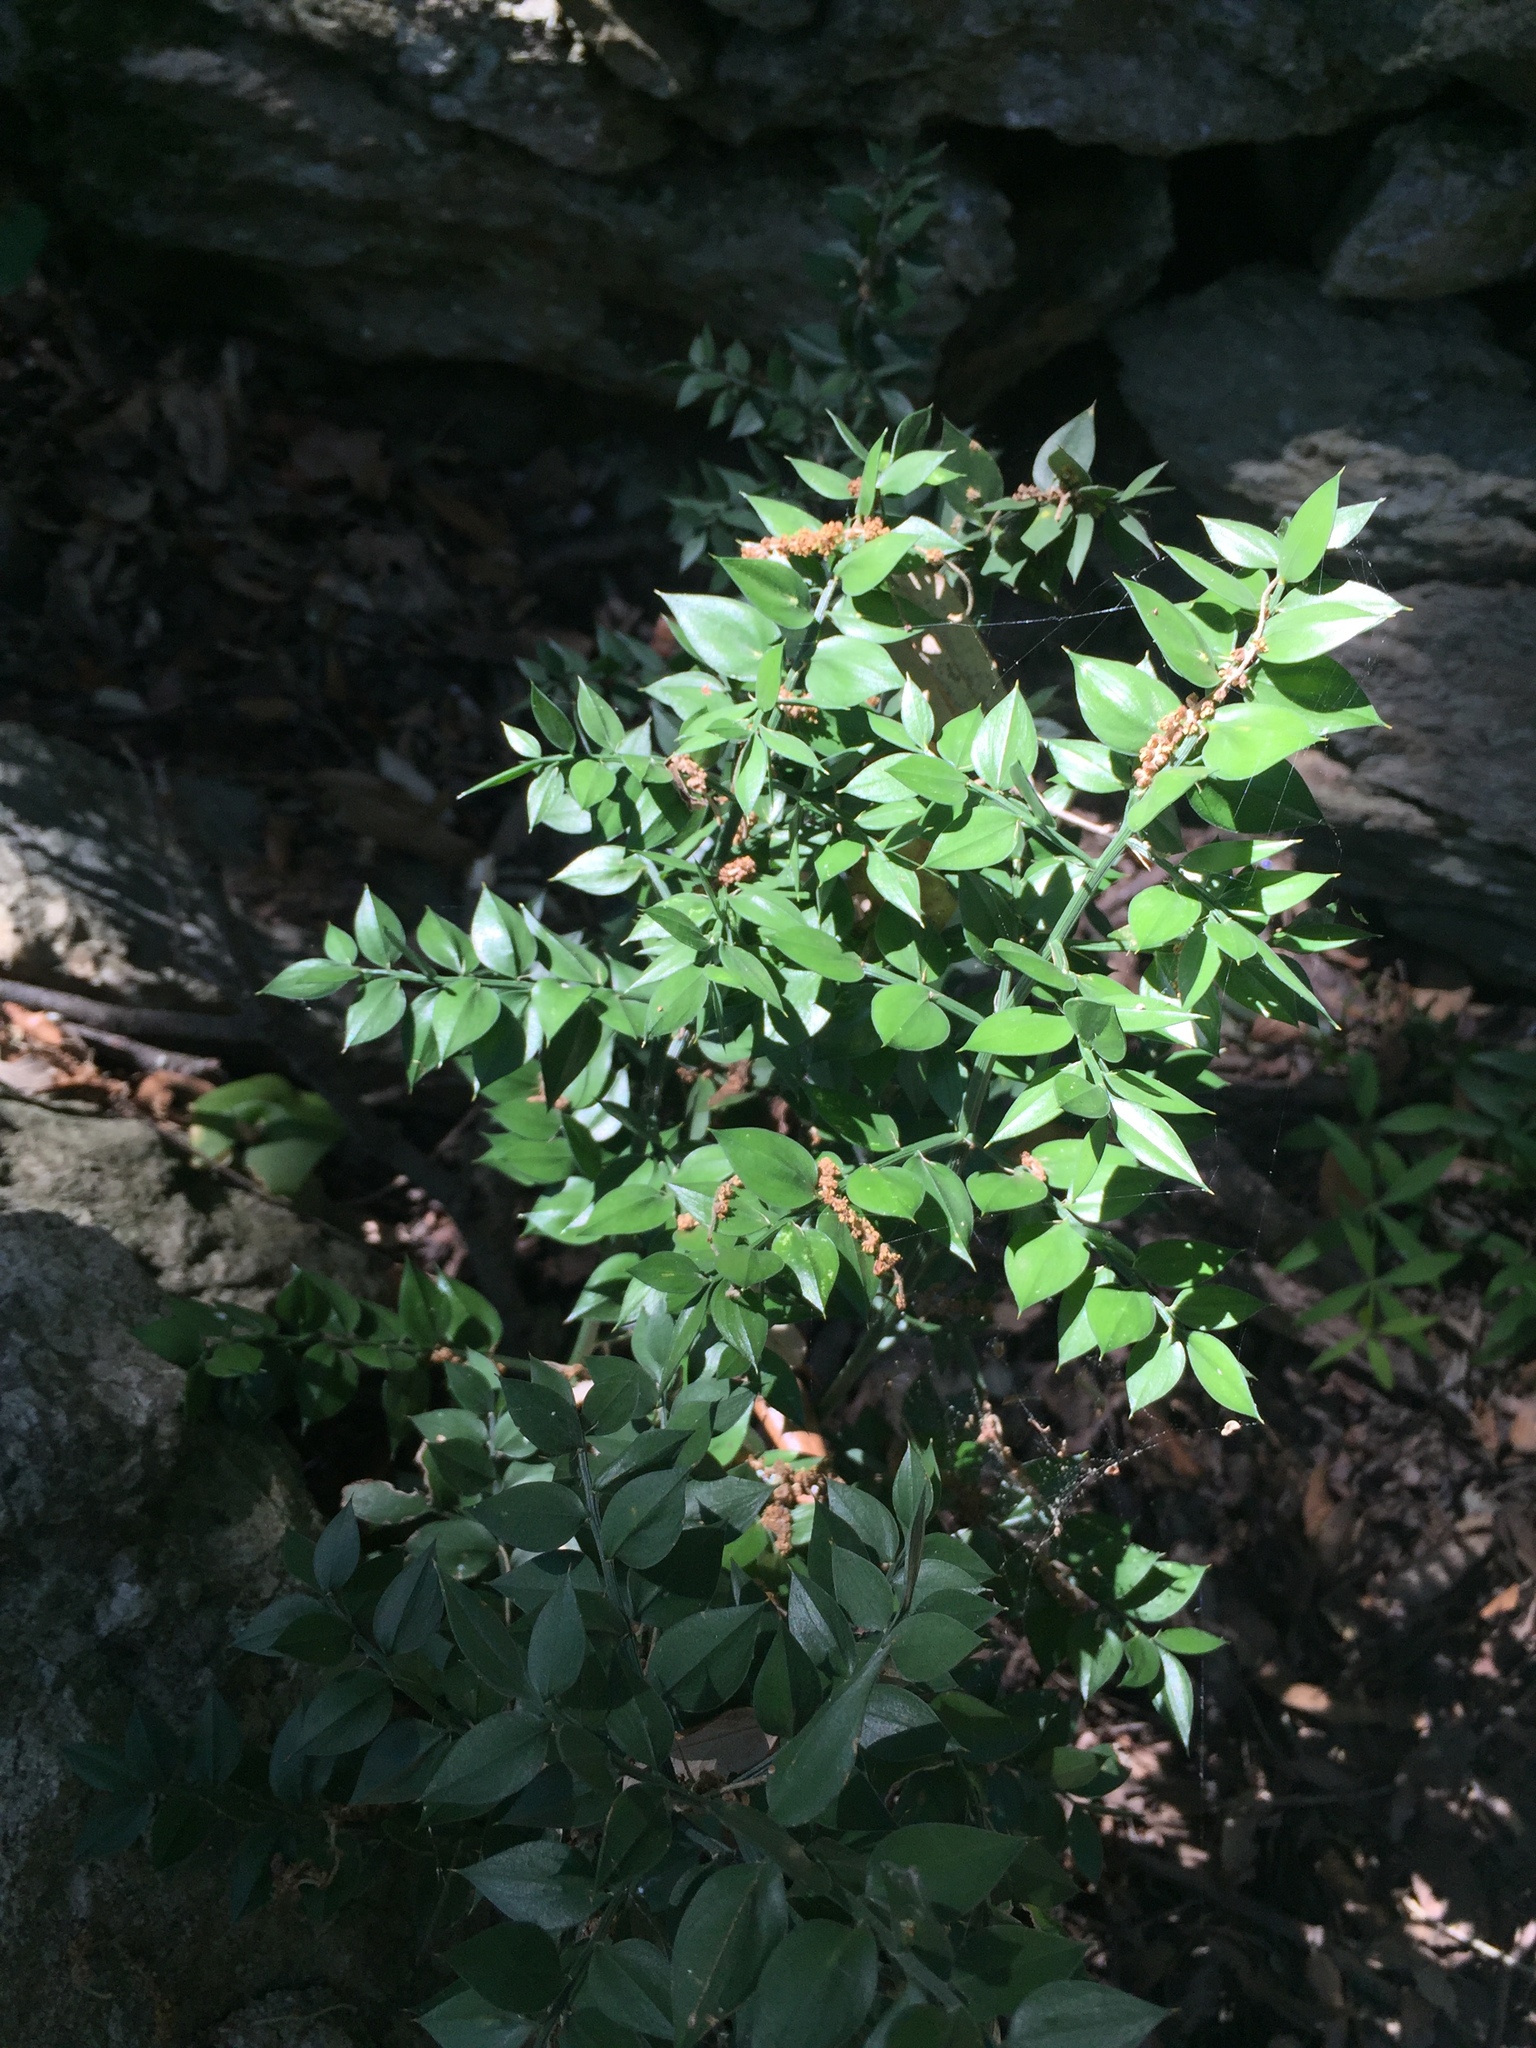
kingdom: Plantae
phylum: Tracheophyta
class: Liliopsida
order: Asparagales
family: Asparagaceae
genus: Ruscus
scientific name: Ruscus aculeatus
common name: Butcher's-broom
